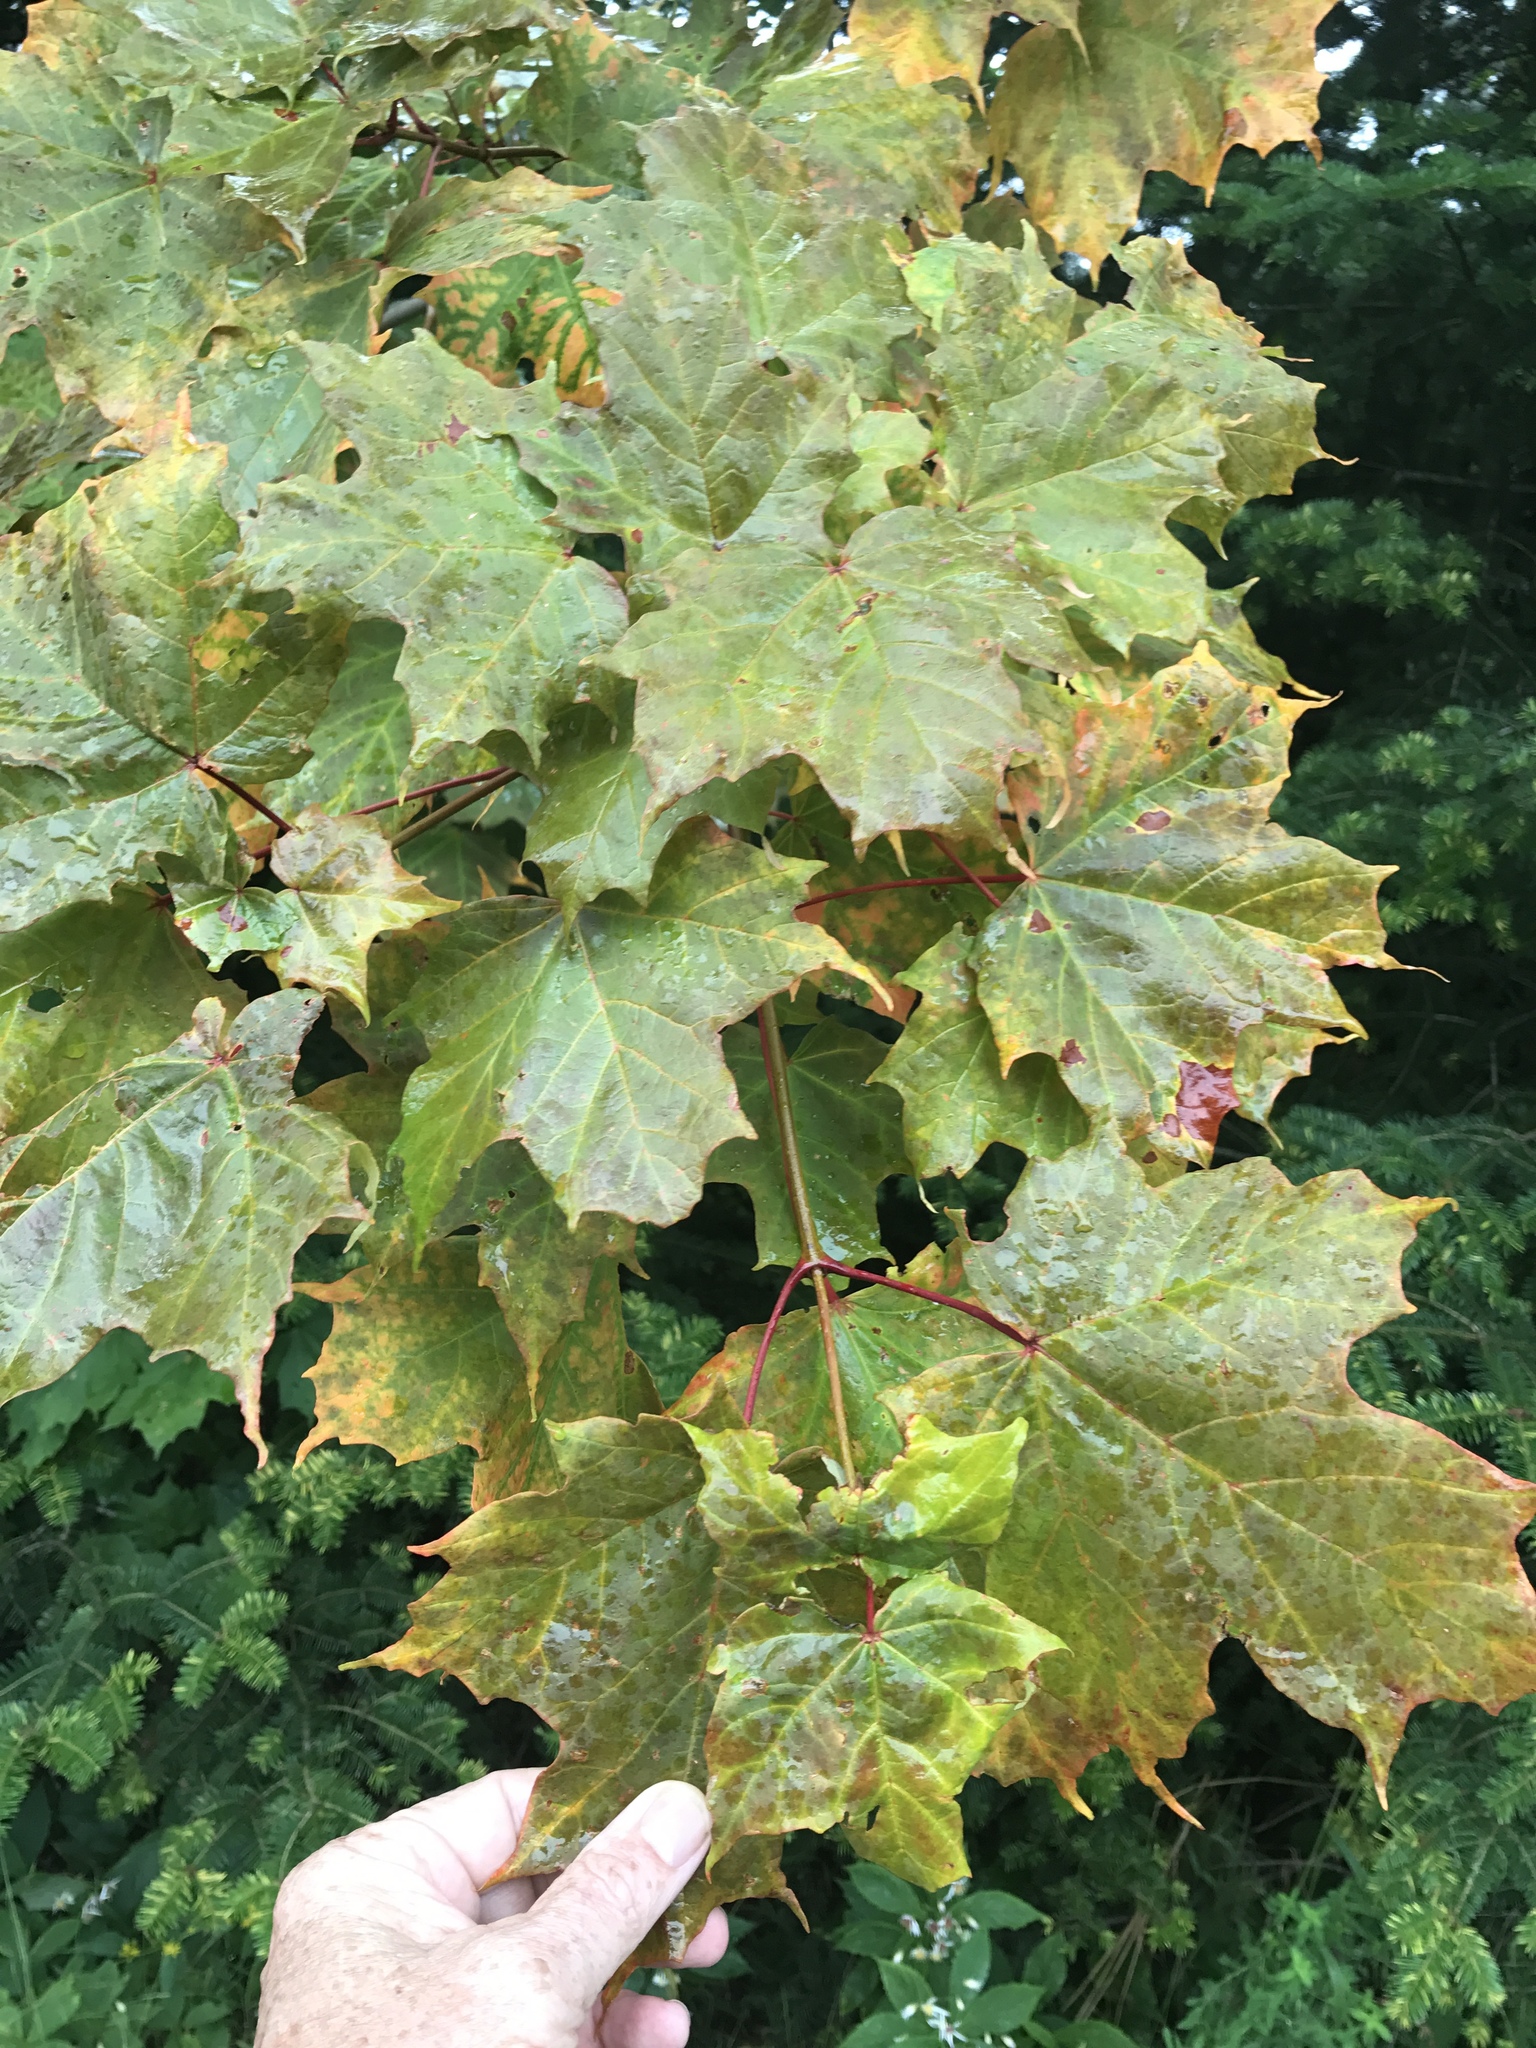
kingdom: Plantae
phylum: Tracheophyta
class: Magnoliopsida
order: Sapindales
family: Sapindaceae
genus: Acer
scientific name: Acer saccharum
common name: Sugar maple
